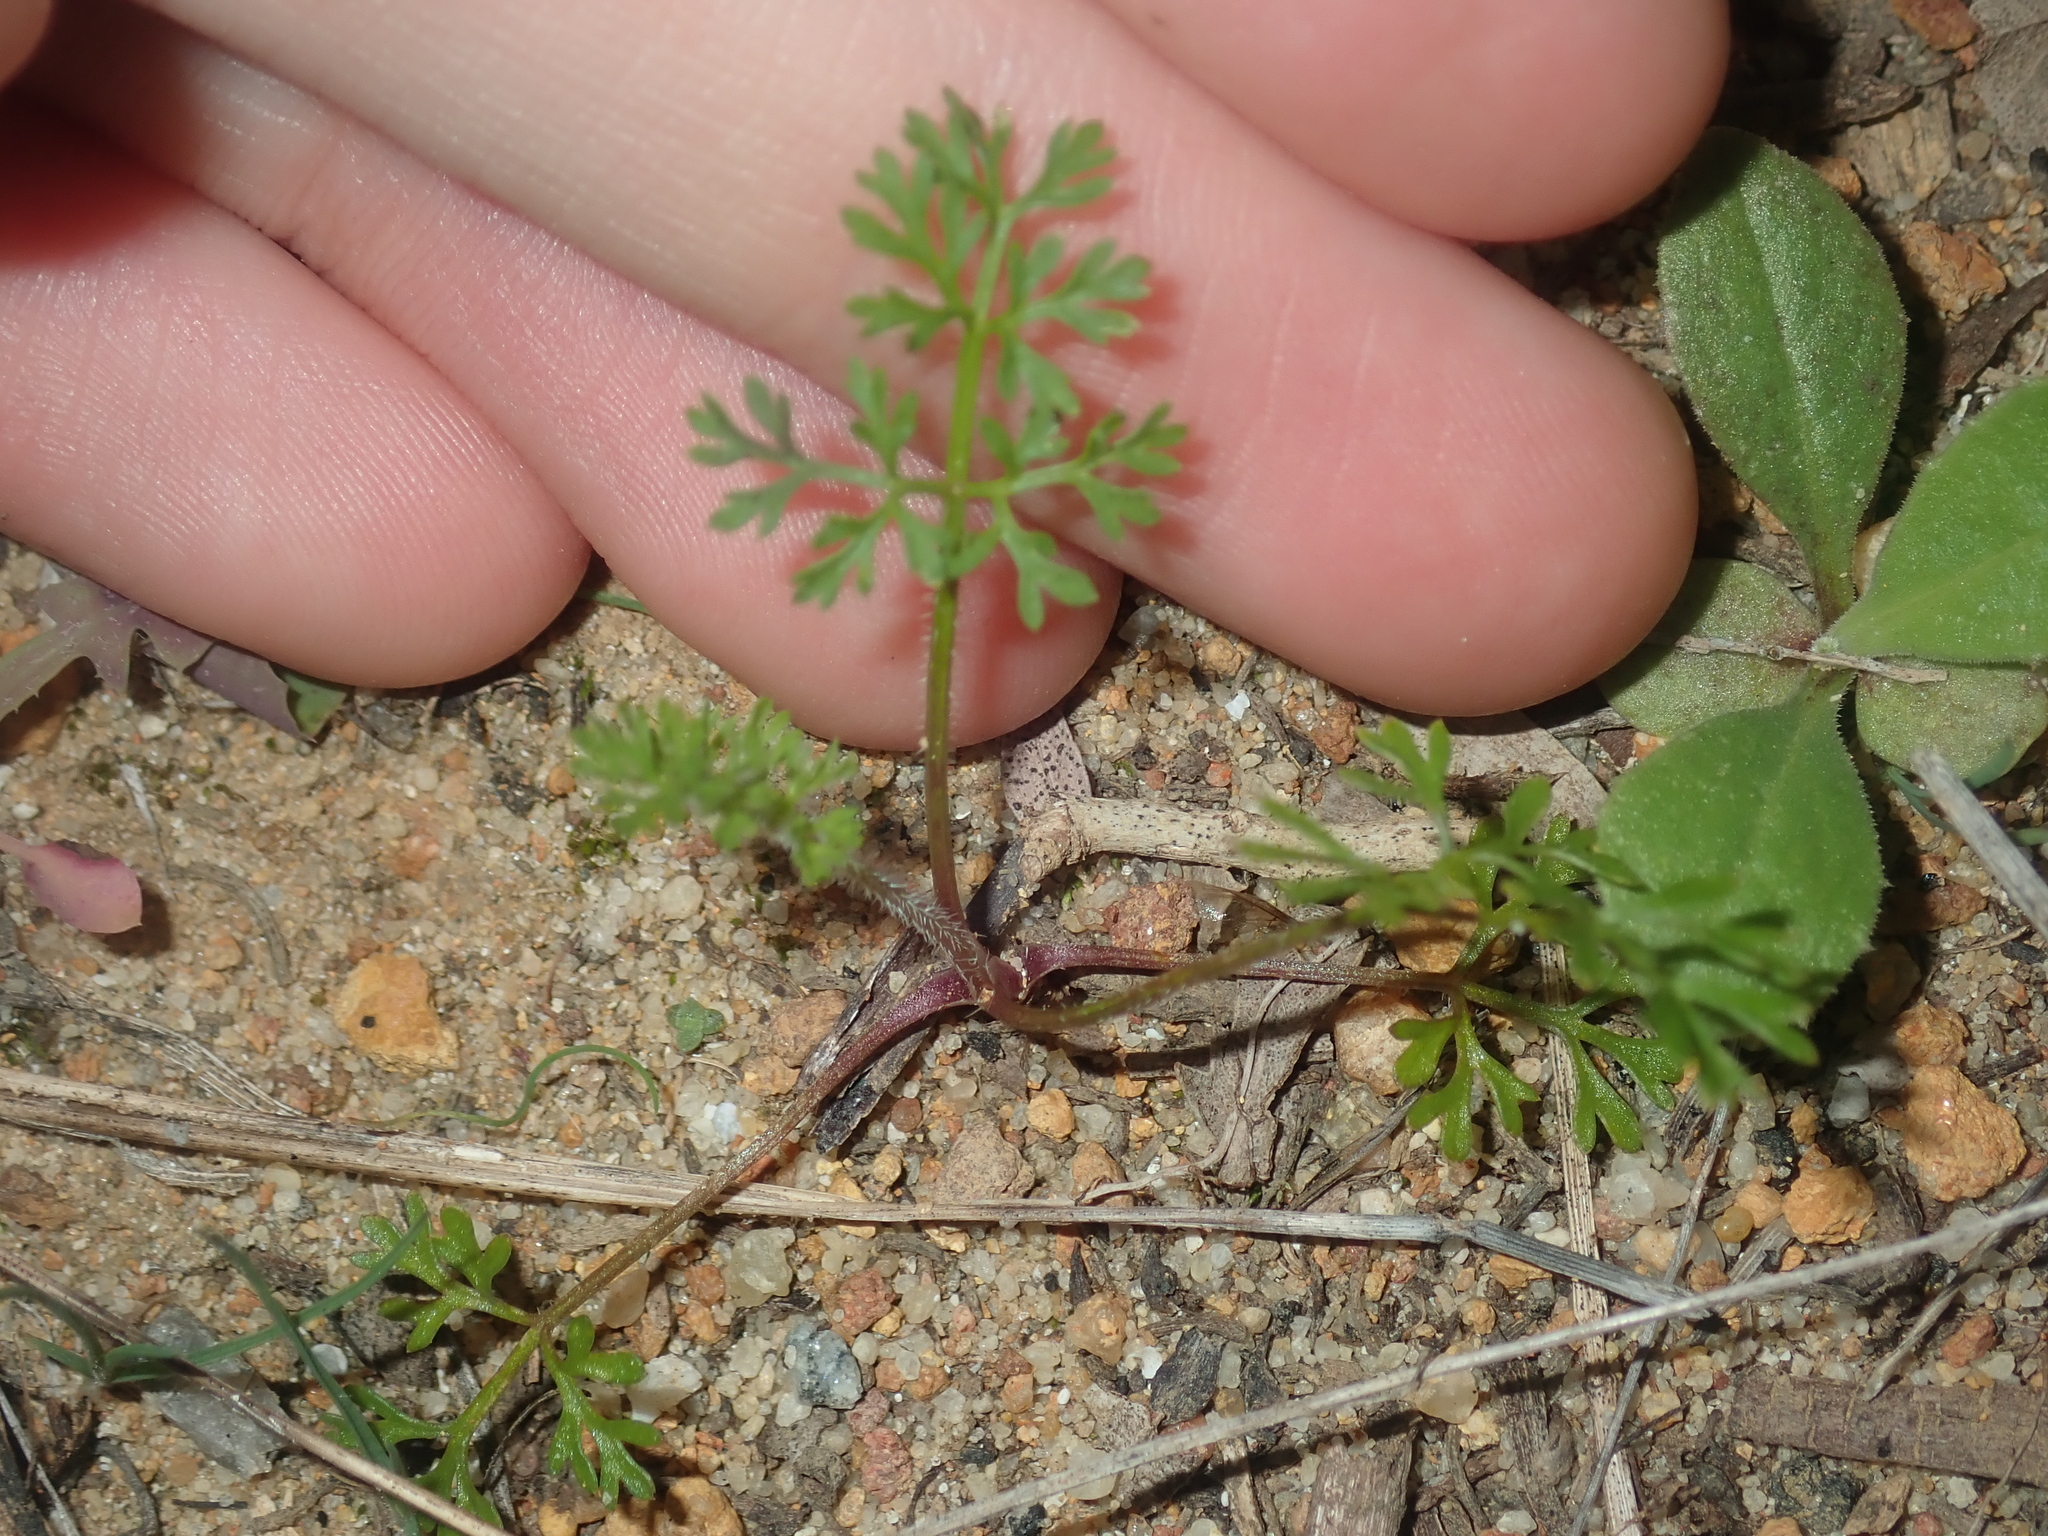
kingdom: Plantae
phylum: Tracheophyta
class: Magnoliopsida
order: Apiales
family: Apiaceae
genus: Daucus
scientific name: Daucus glochidiatus
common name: Australian carrot
